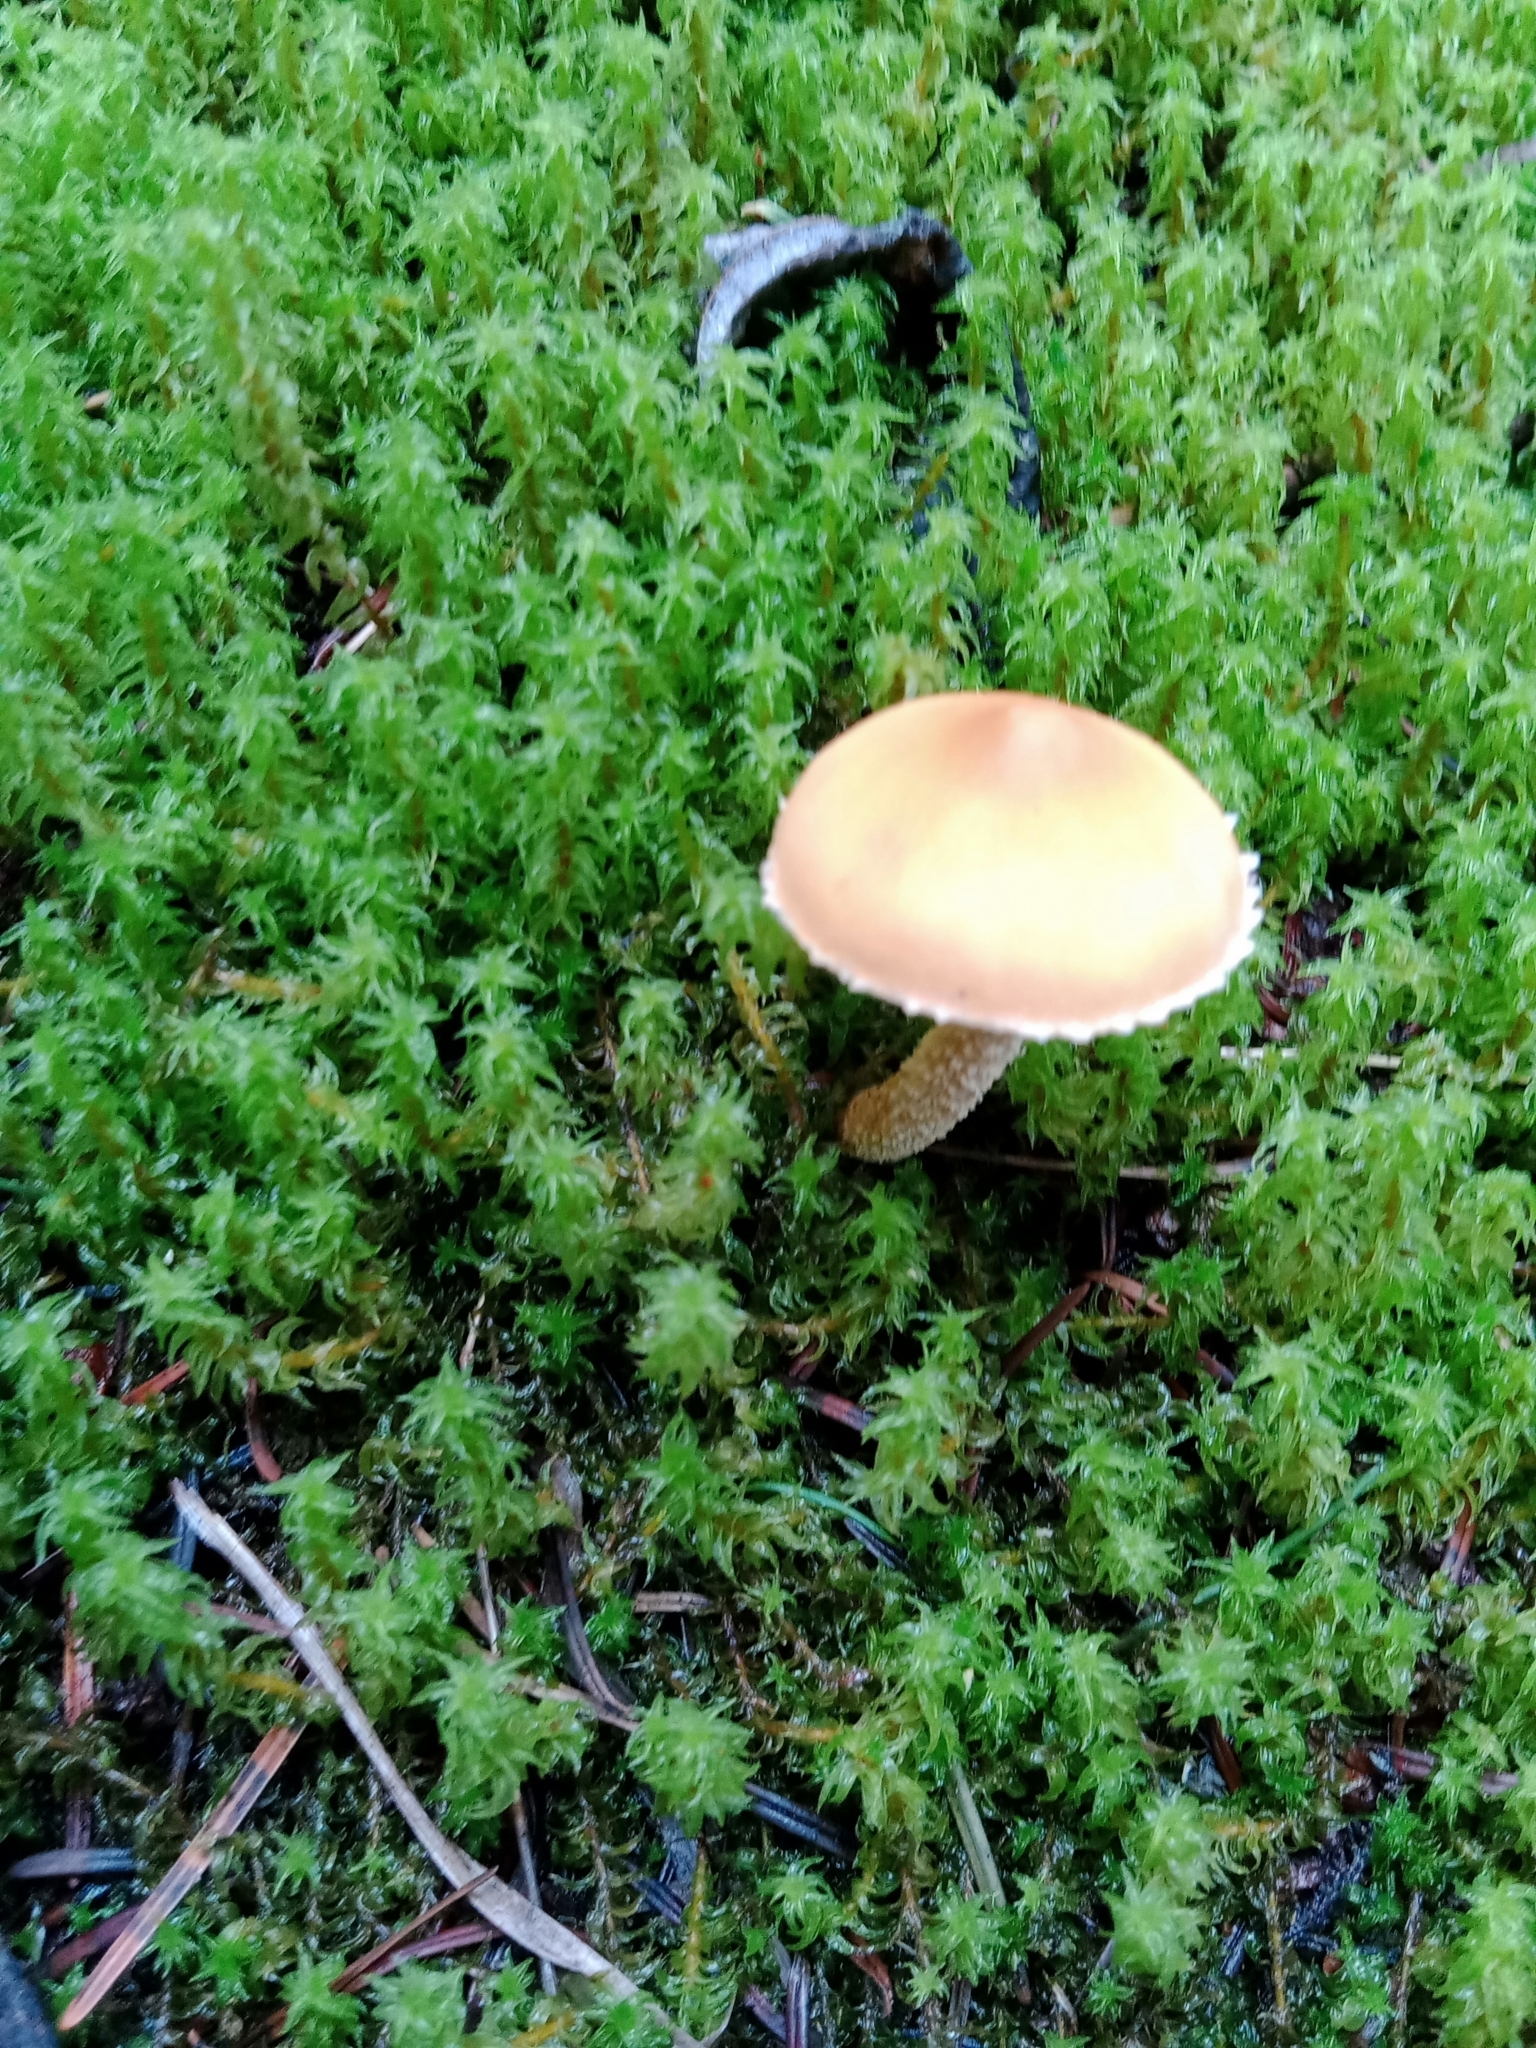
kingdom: Fungi
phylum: Basidiomycota
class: Agaricomycetes
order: Agaricales
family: Tricholomataceae
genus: Cystoderma
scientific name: Cystoderma amianthinum
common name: Earthy powdercap
